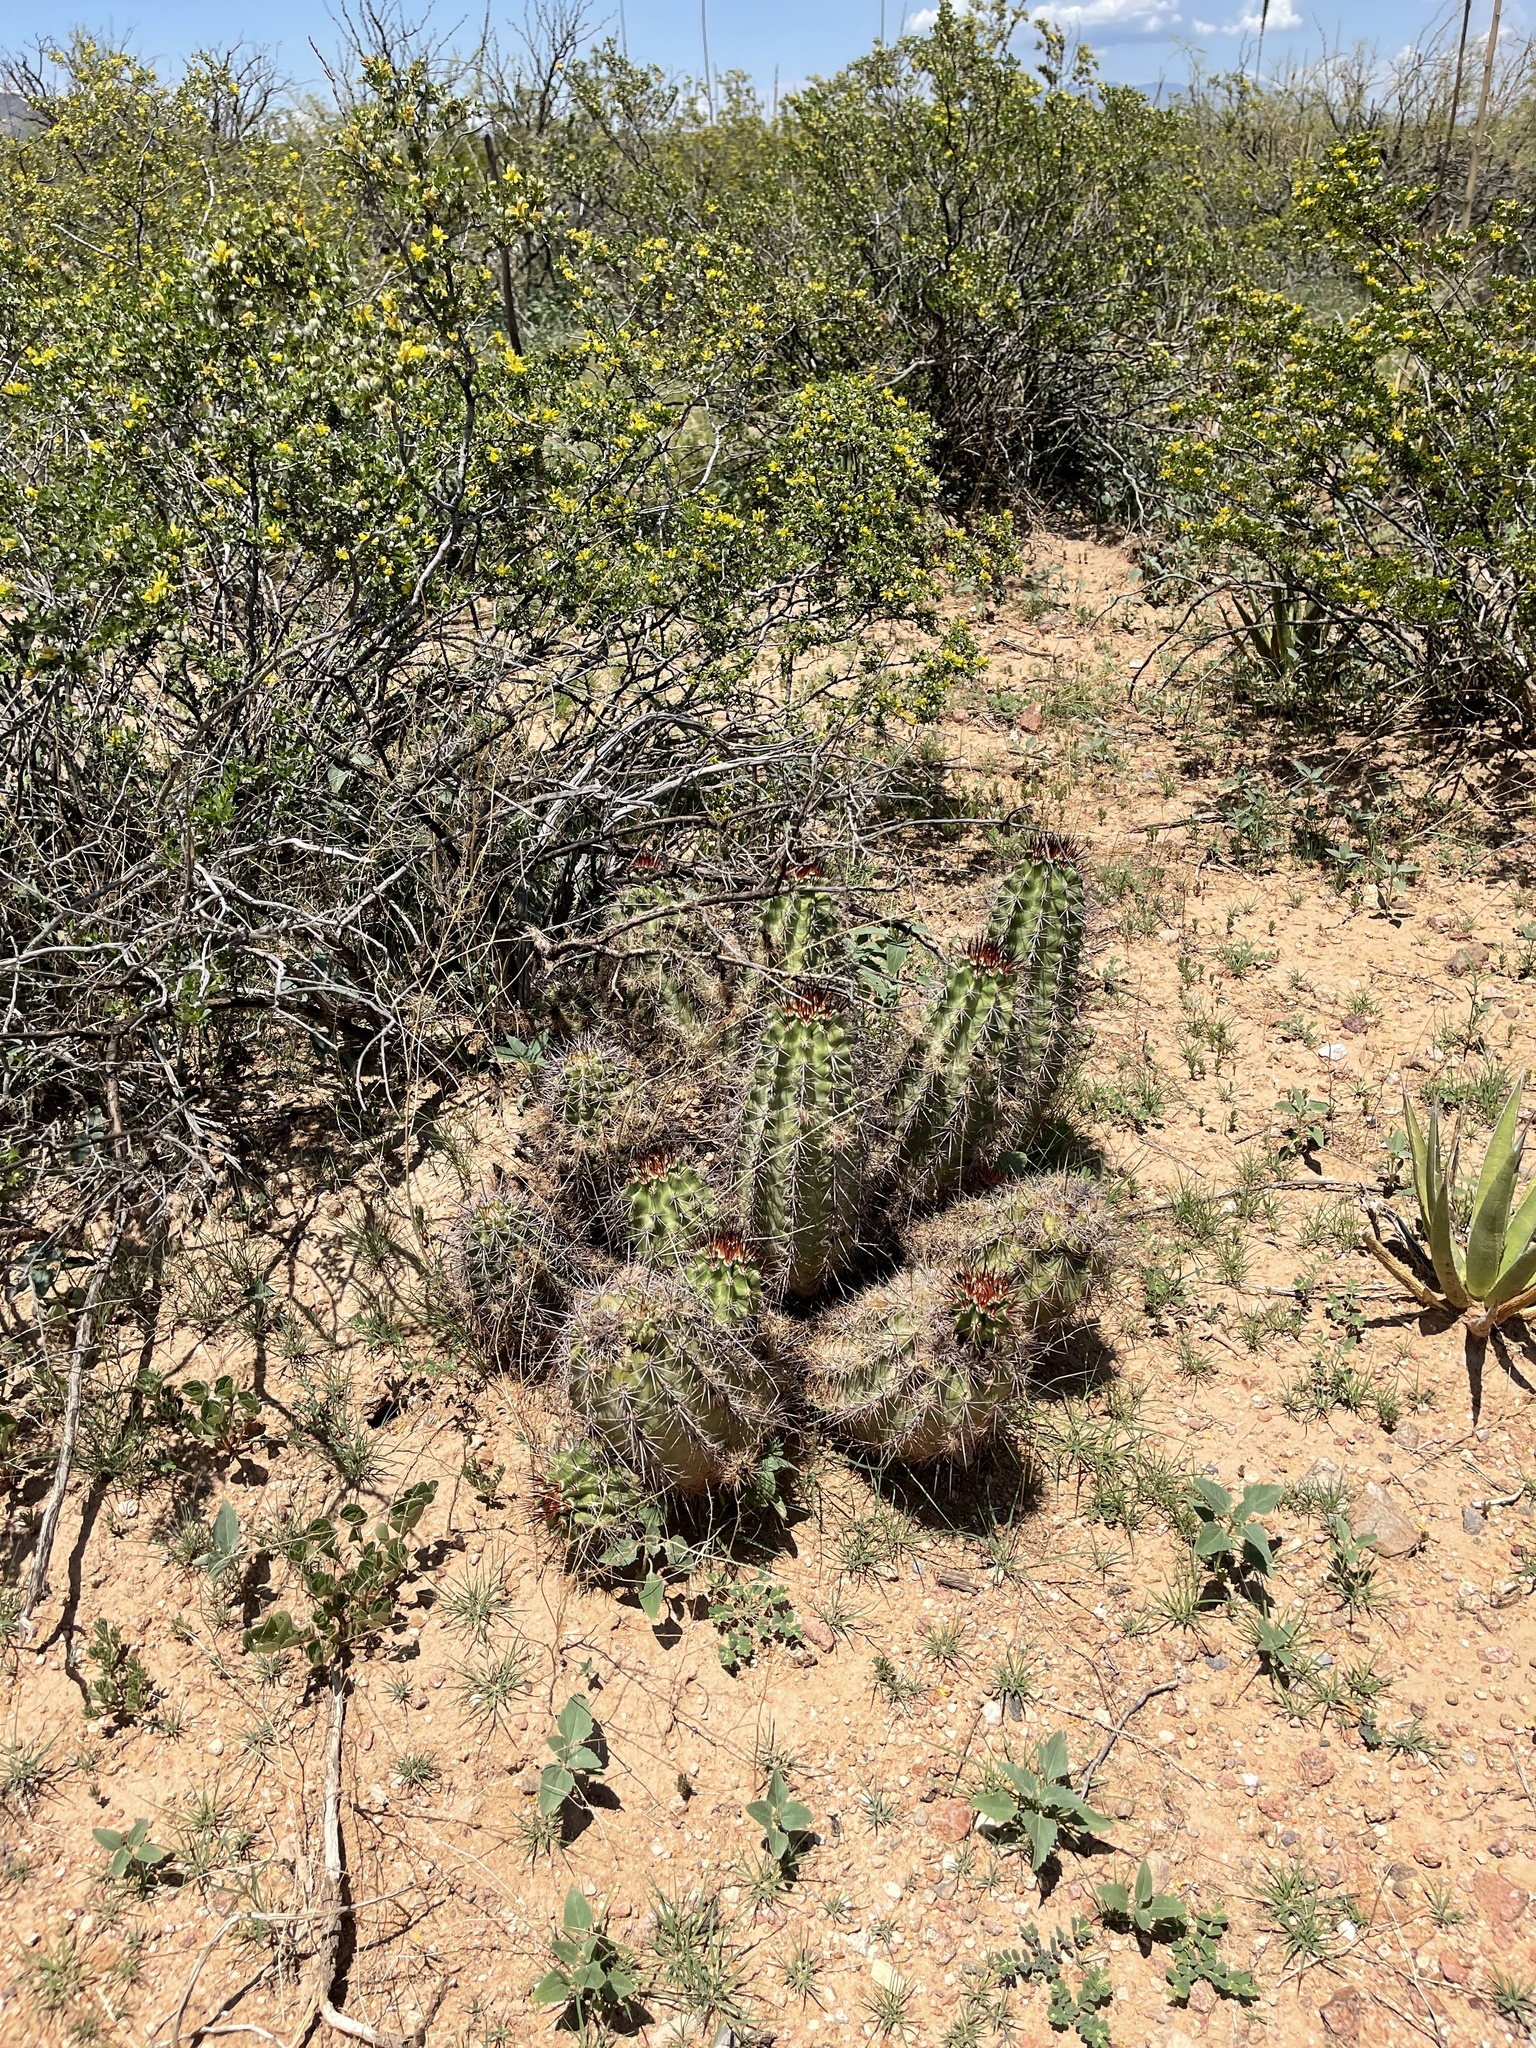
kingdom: Plantae
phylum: Tracheophyta
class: Magnoliopsida
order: Caryophyllales
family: Cactaceae
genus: Echinocereus
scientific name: Echinocereus coccineus
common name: Scarlet hedgehog cactus
